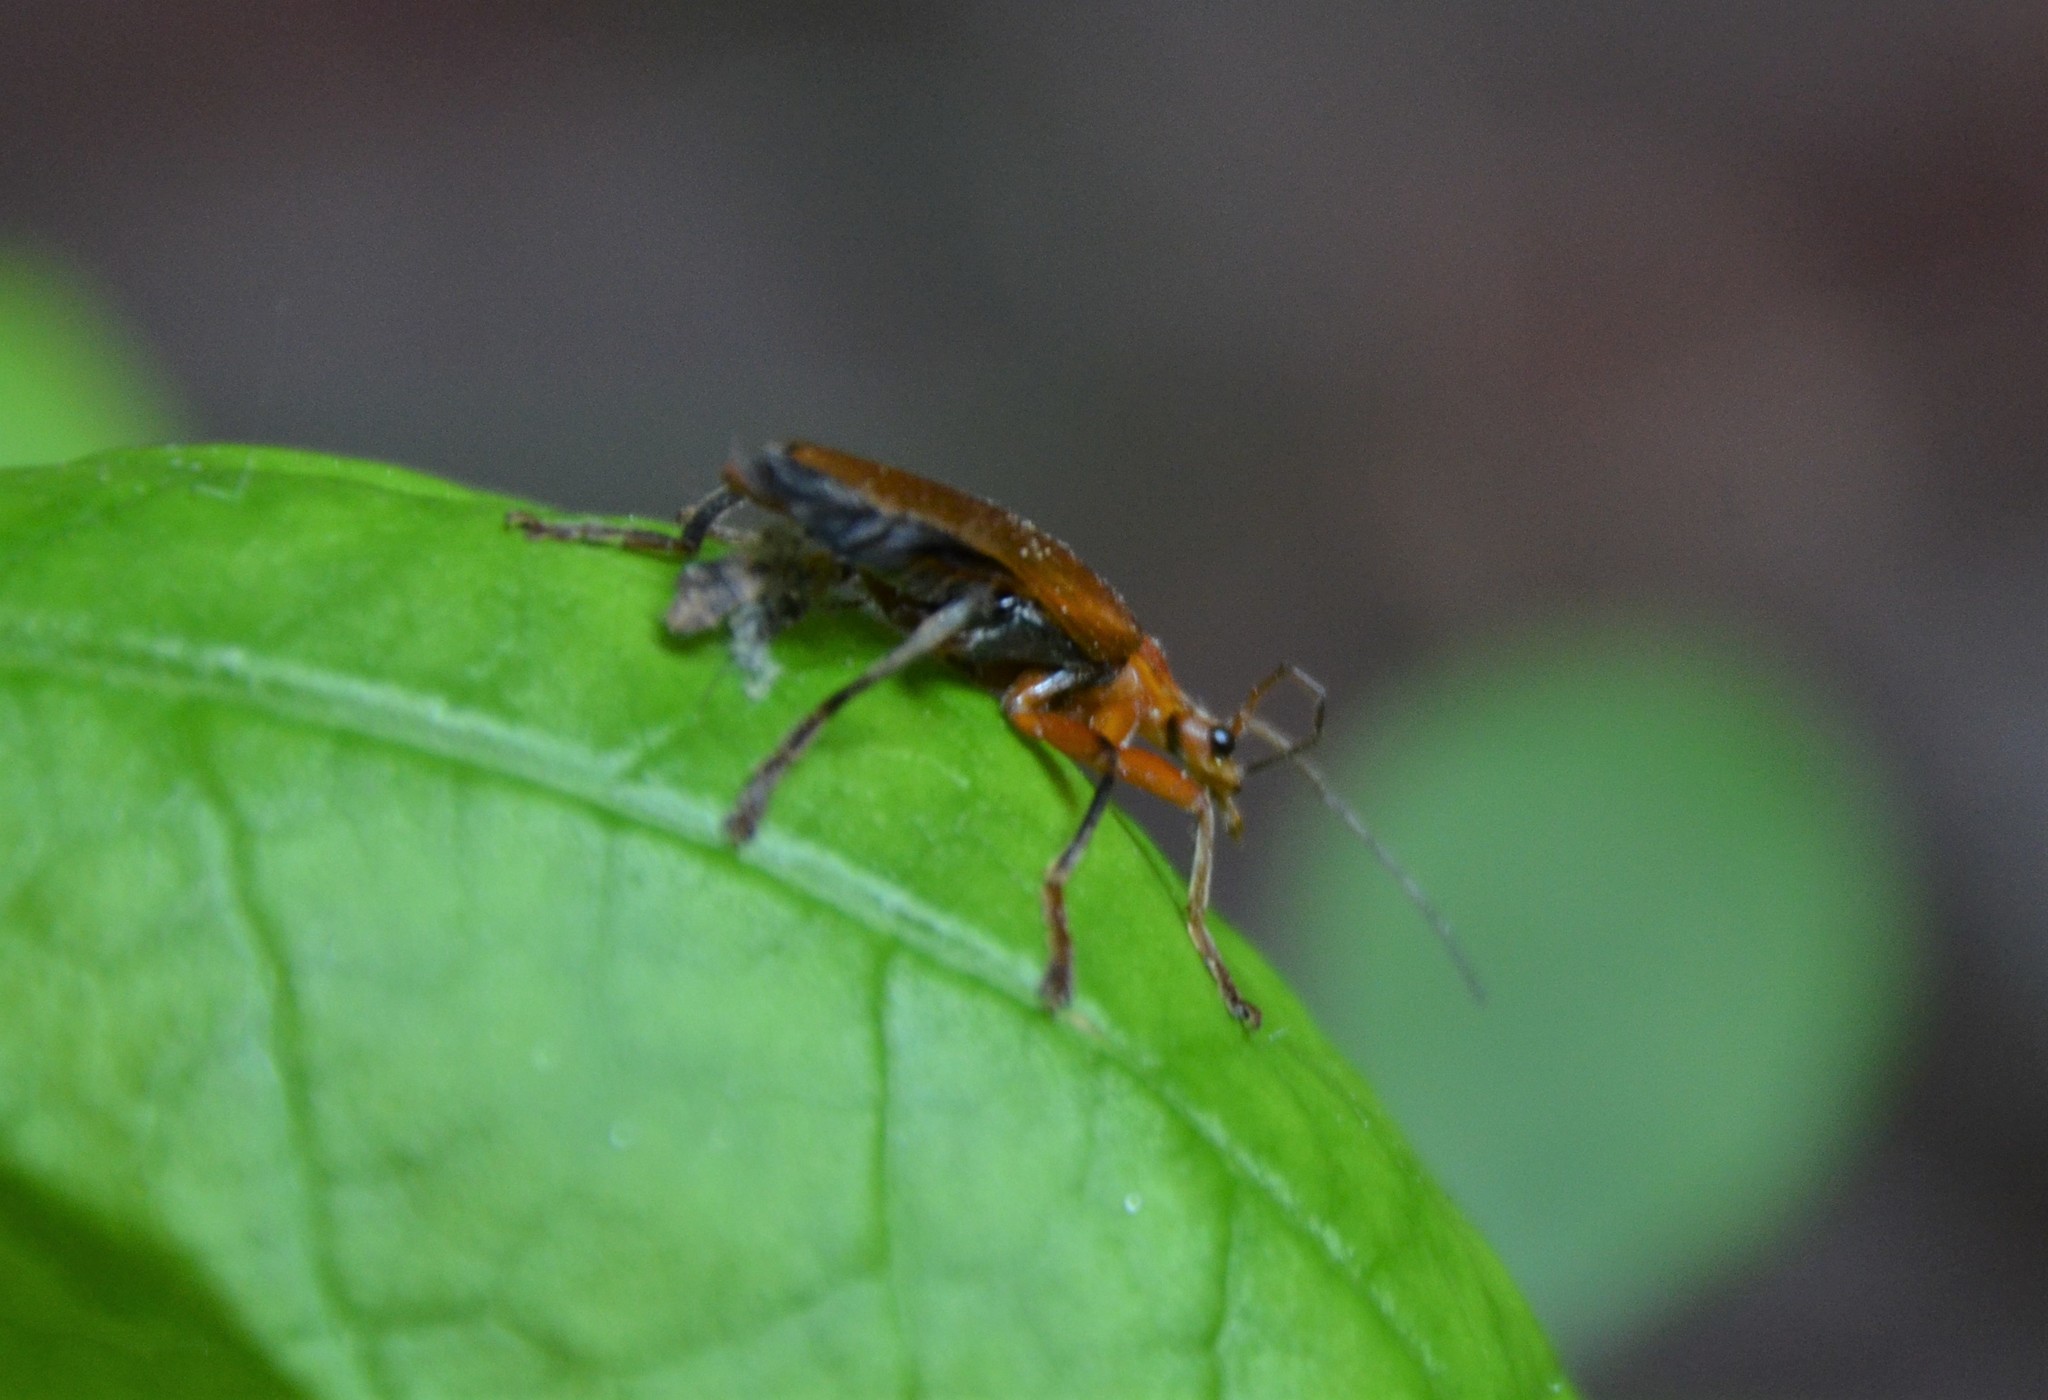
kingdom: Animalia
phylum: Arthropoda
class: Insecta
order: Coleoptera
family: Cantharidae
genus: Cantharis
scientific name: Cantharis livida
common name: Livid soldier beetle
